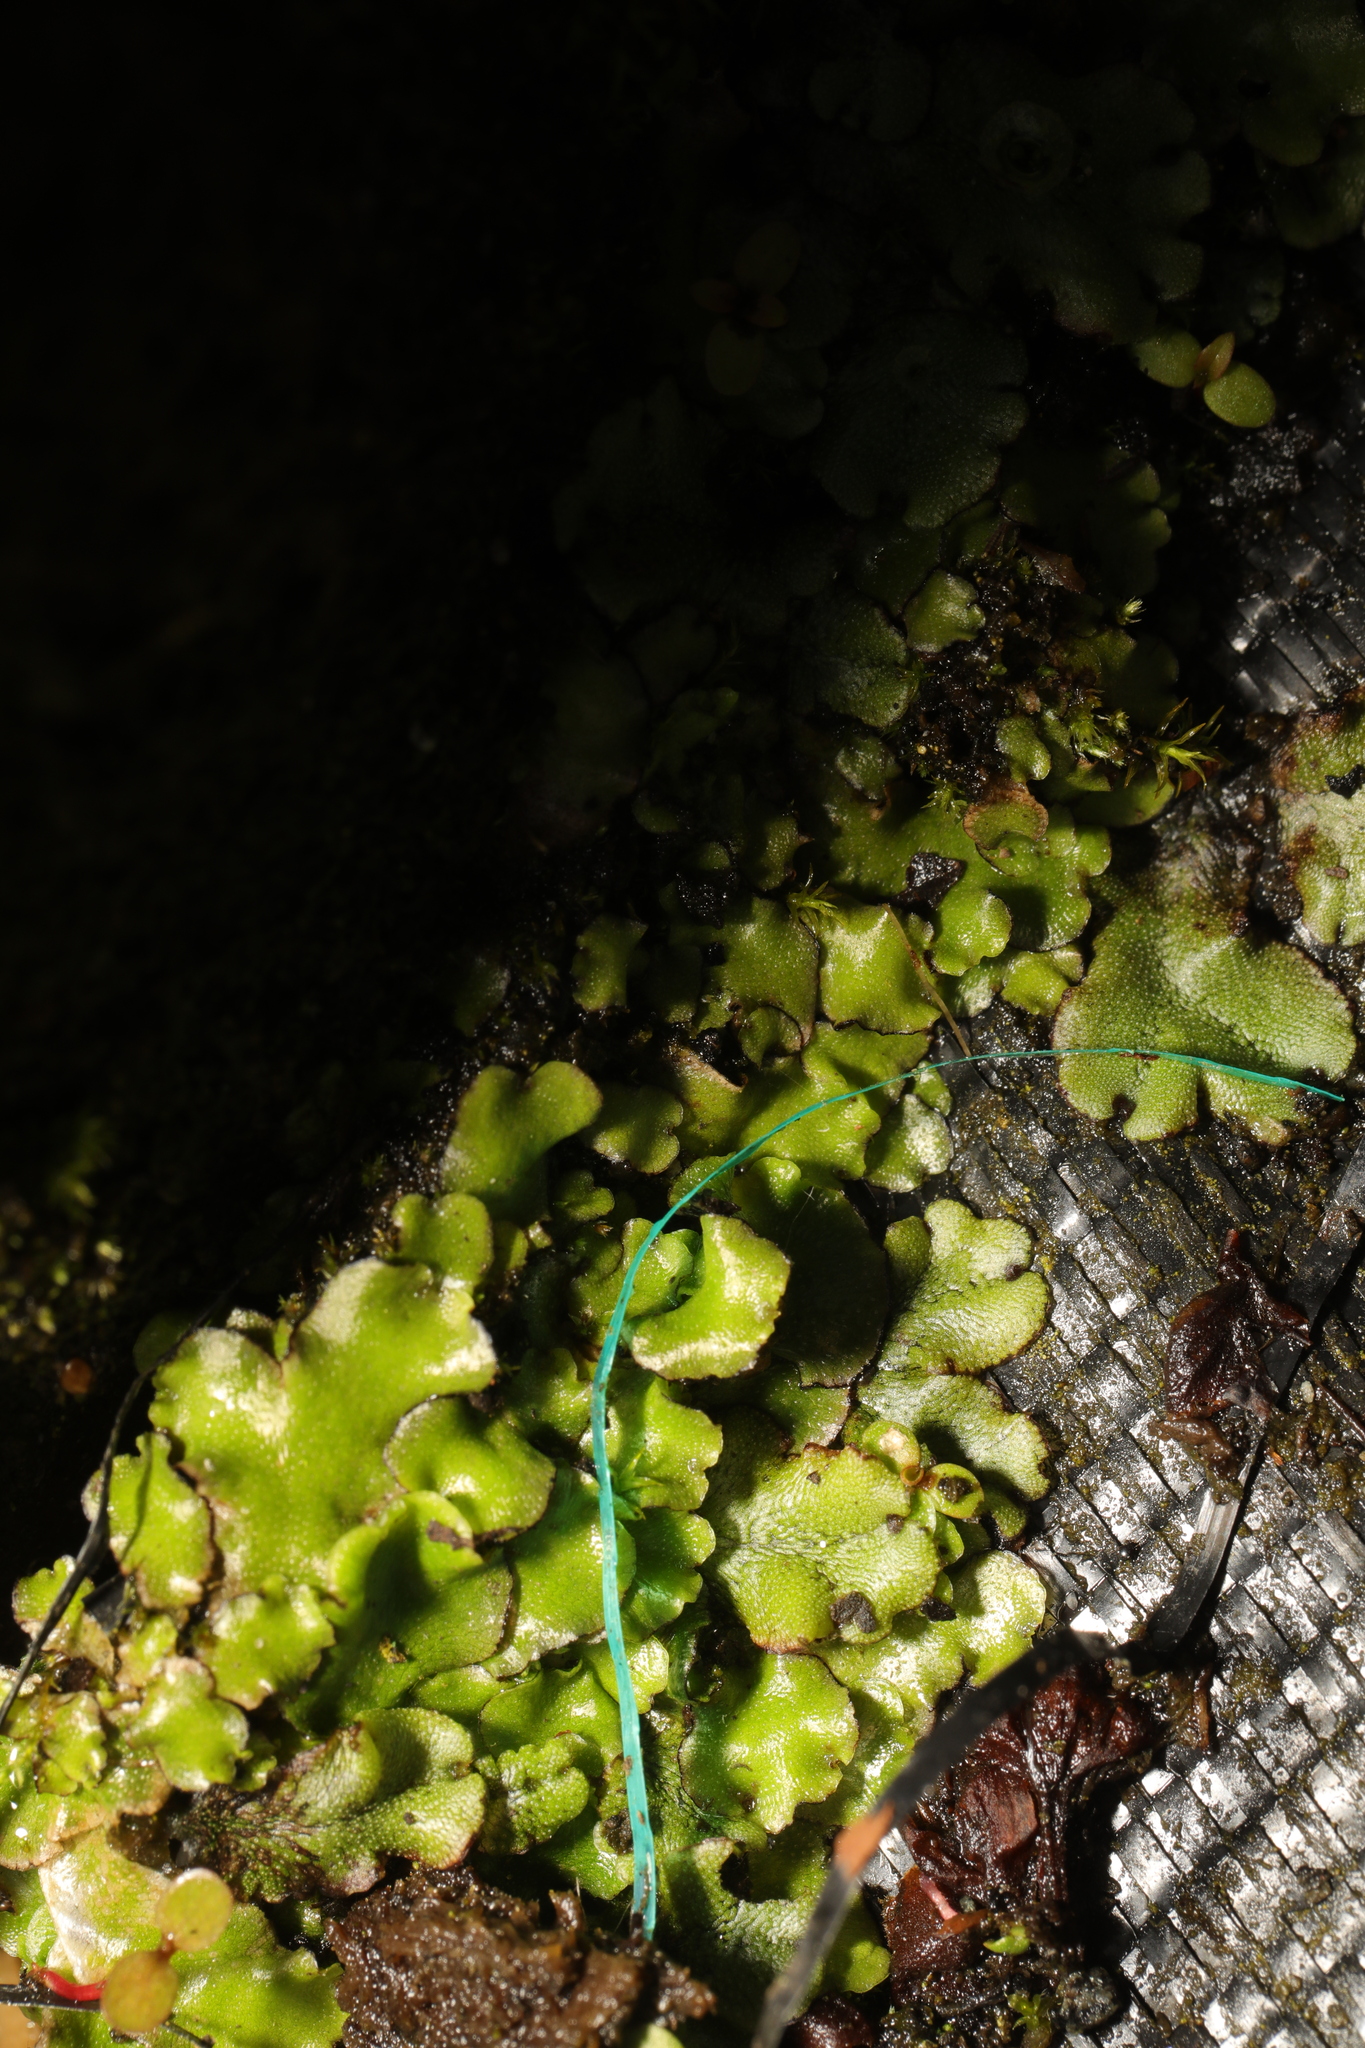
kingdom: Plantae
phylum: Marchantiophyta
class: Marchantiopsida
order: Marchantiales
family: Marchantiaceae
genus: Marchantia
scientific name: Marchantia polymorpha
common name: Common liverwort
